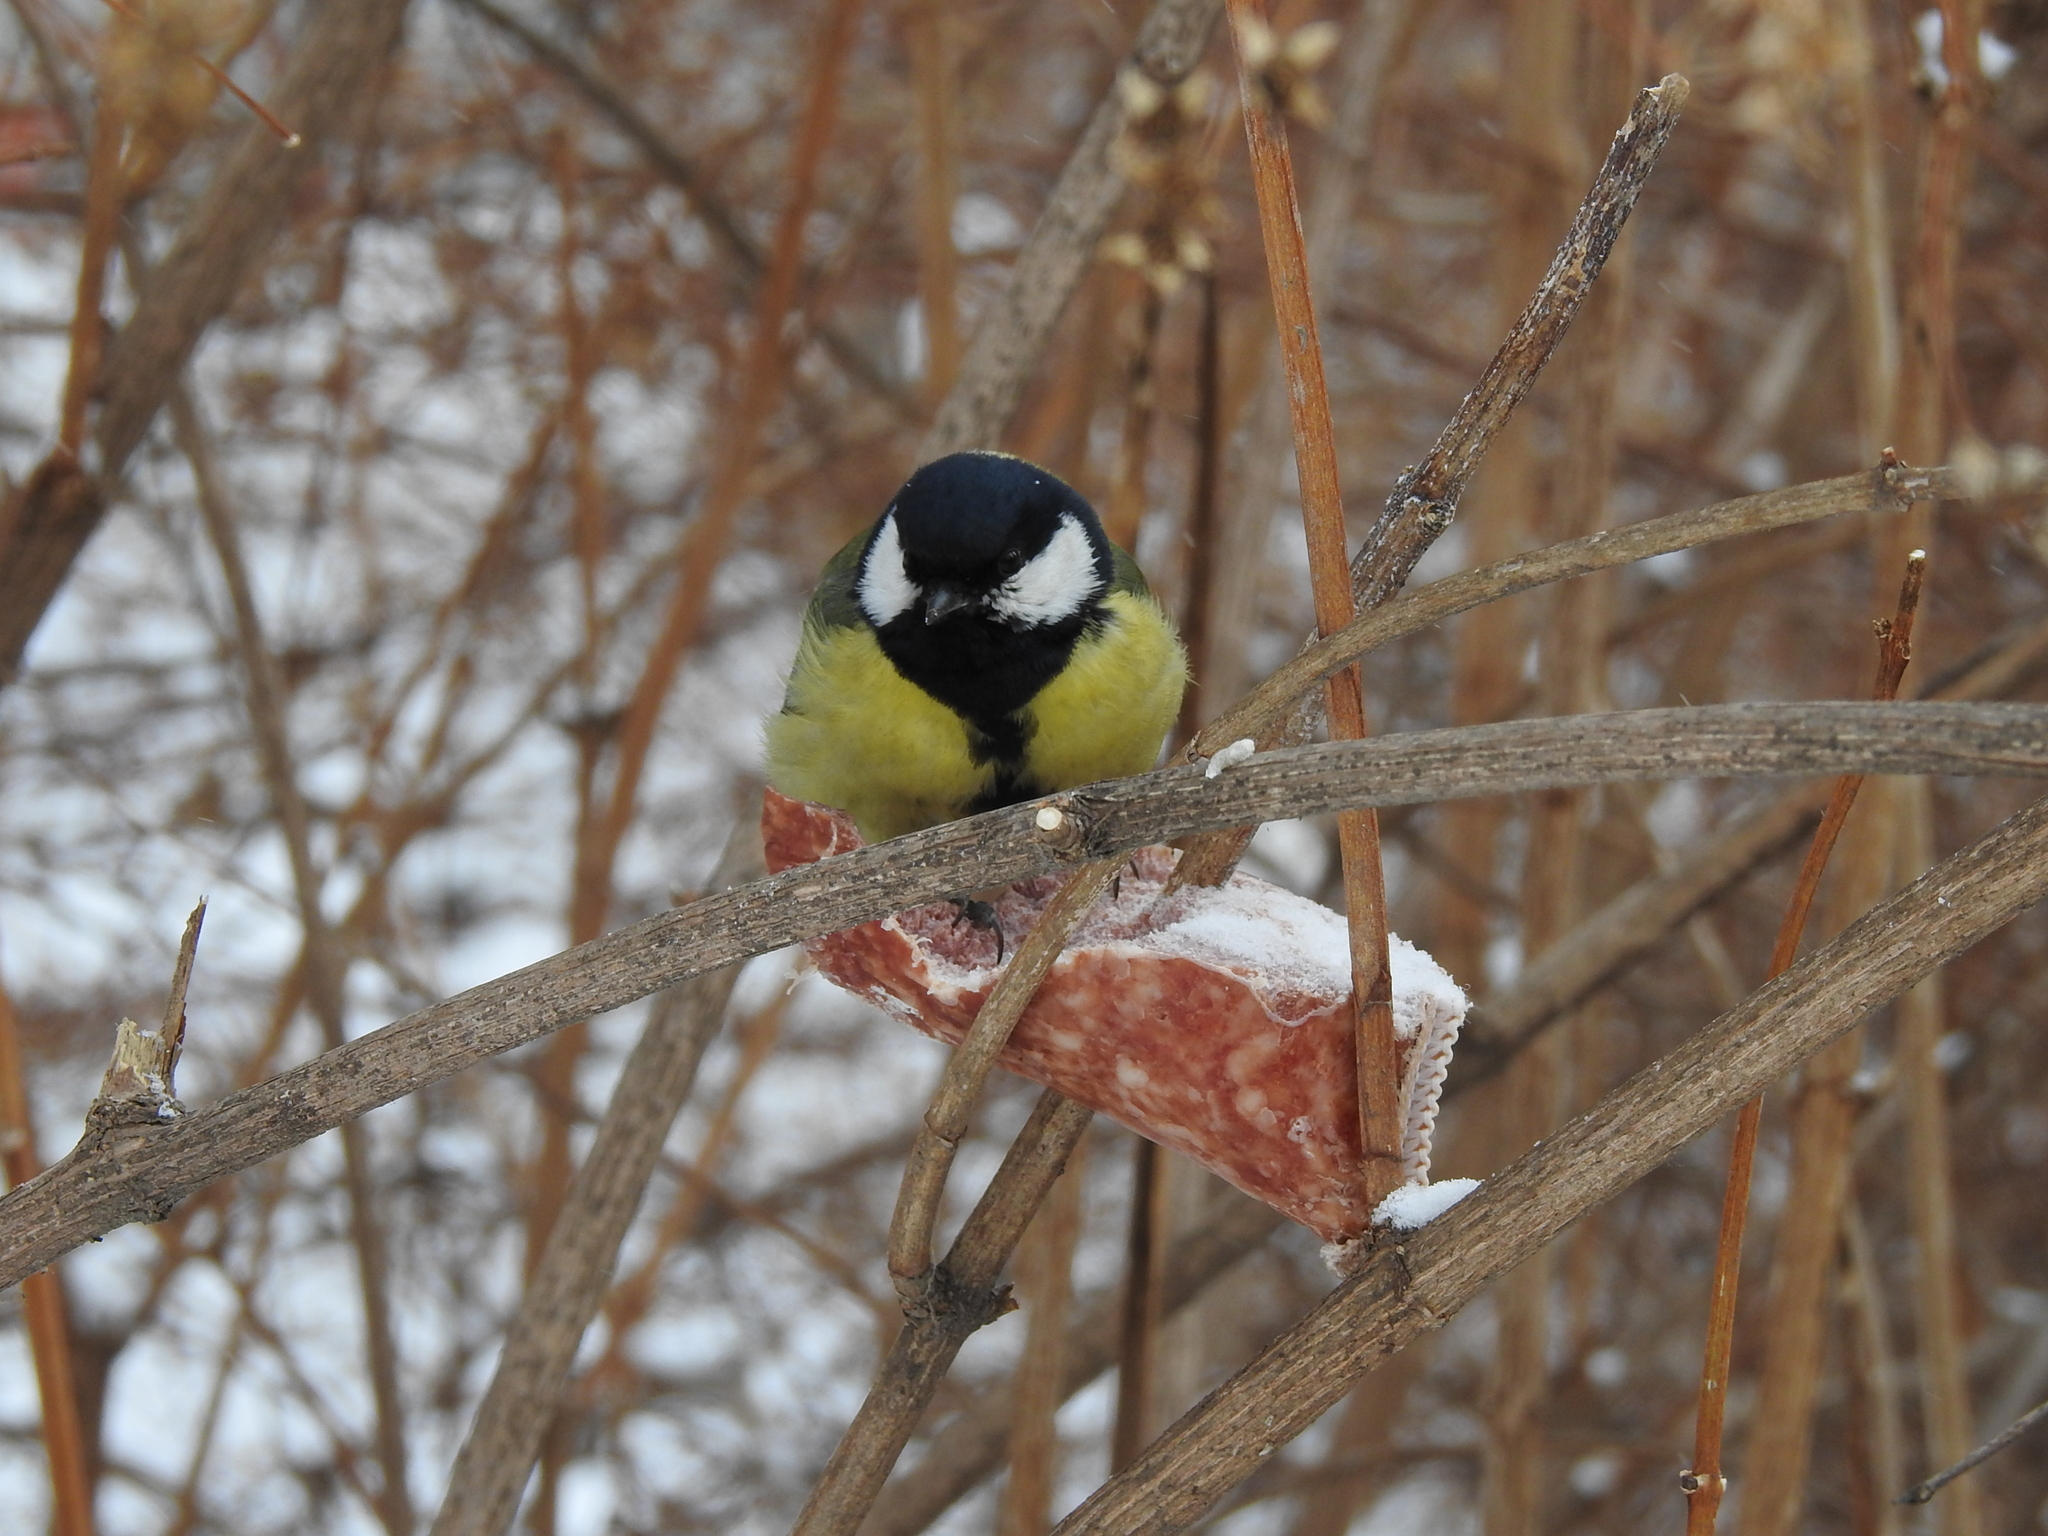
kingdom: Animalia
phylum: Chordata
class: Aves
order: Passeriformes
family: Paridae
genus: Parus
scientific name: Parus major
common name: Great tit
